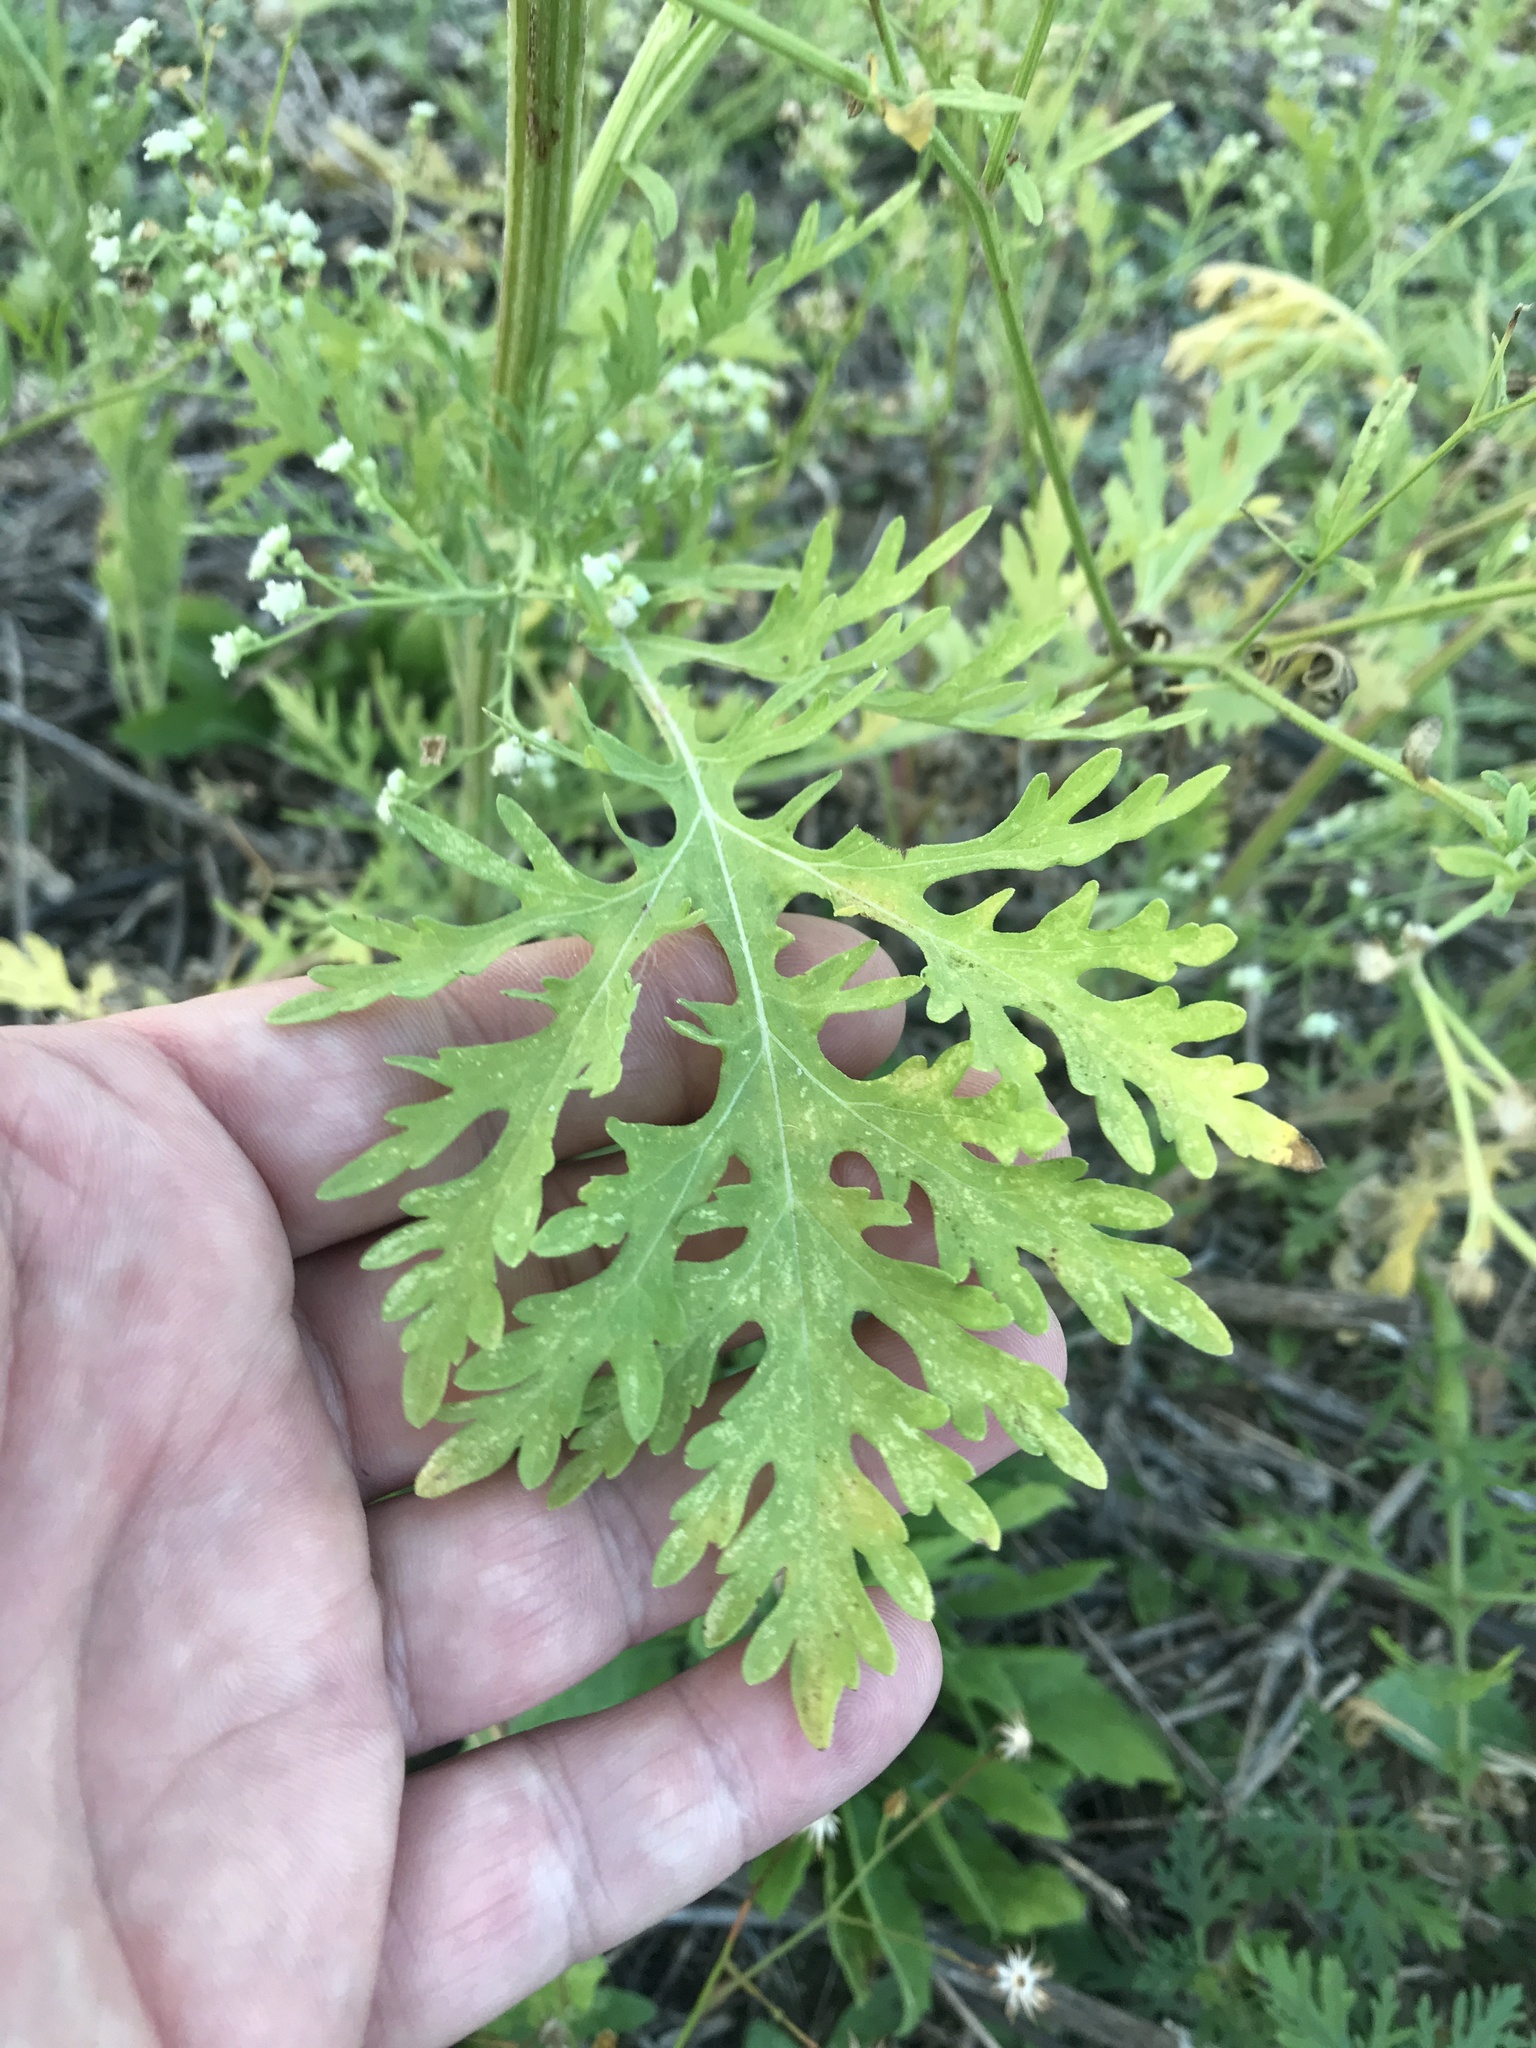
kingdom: Plantae
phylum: Tracheophyta
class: Magnoliopsida
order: Asterales
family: Asteraceae
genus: Parthenium
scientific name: Parthenium hysterophorus
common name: Santa maria feverfew
